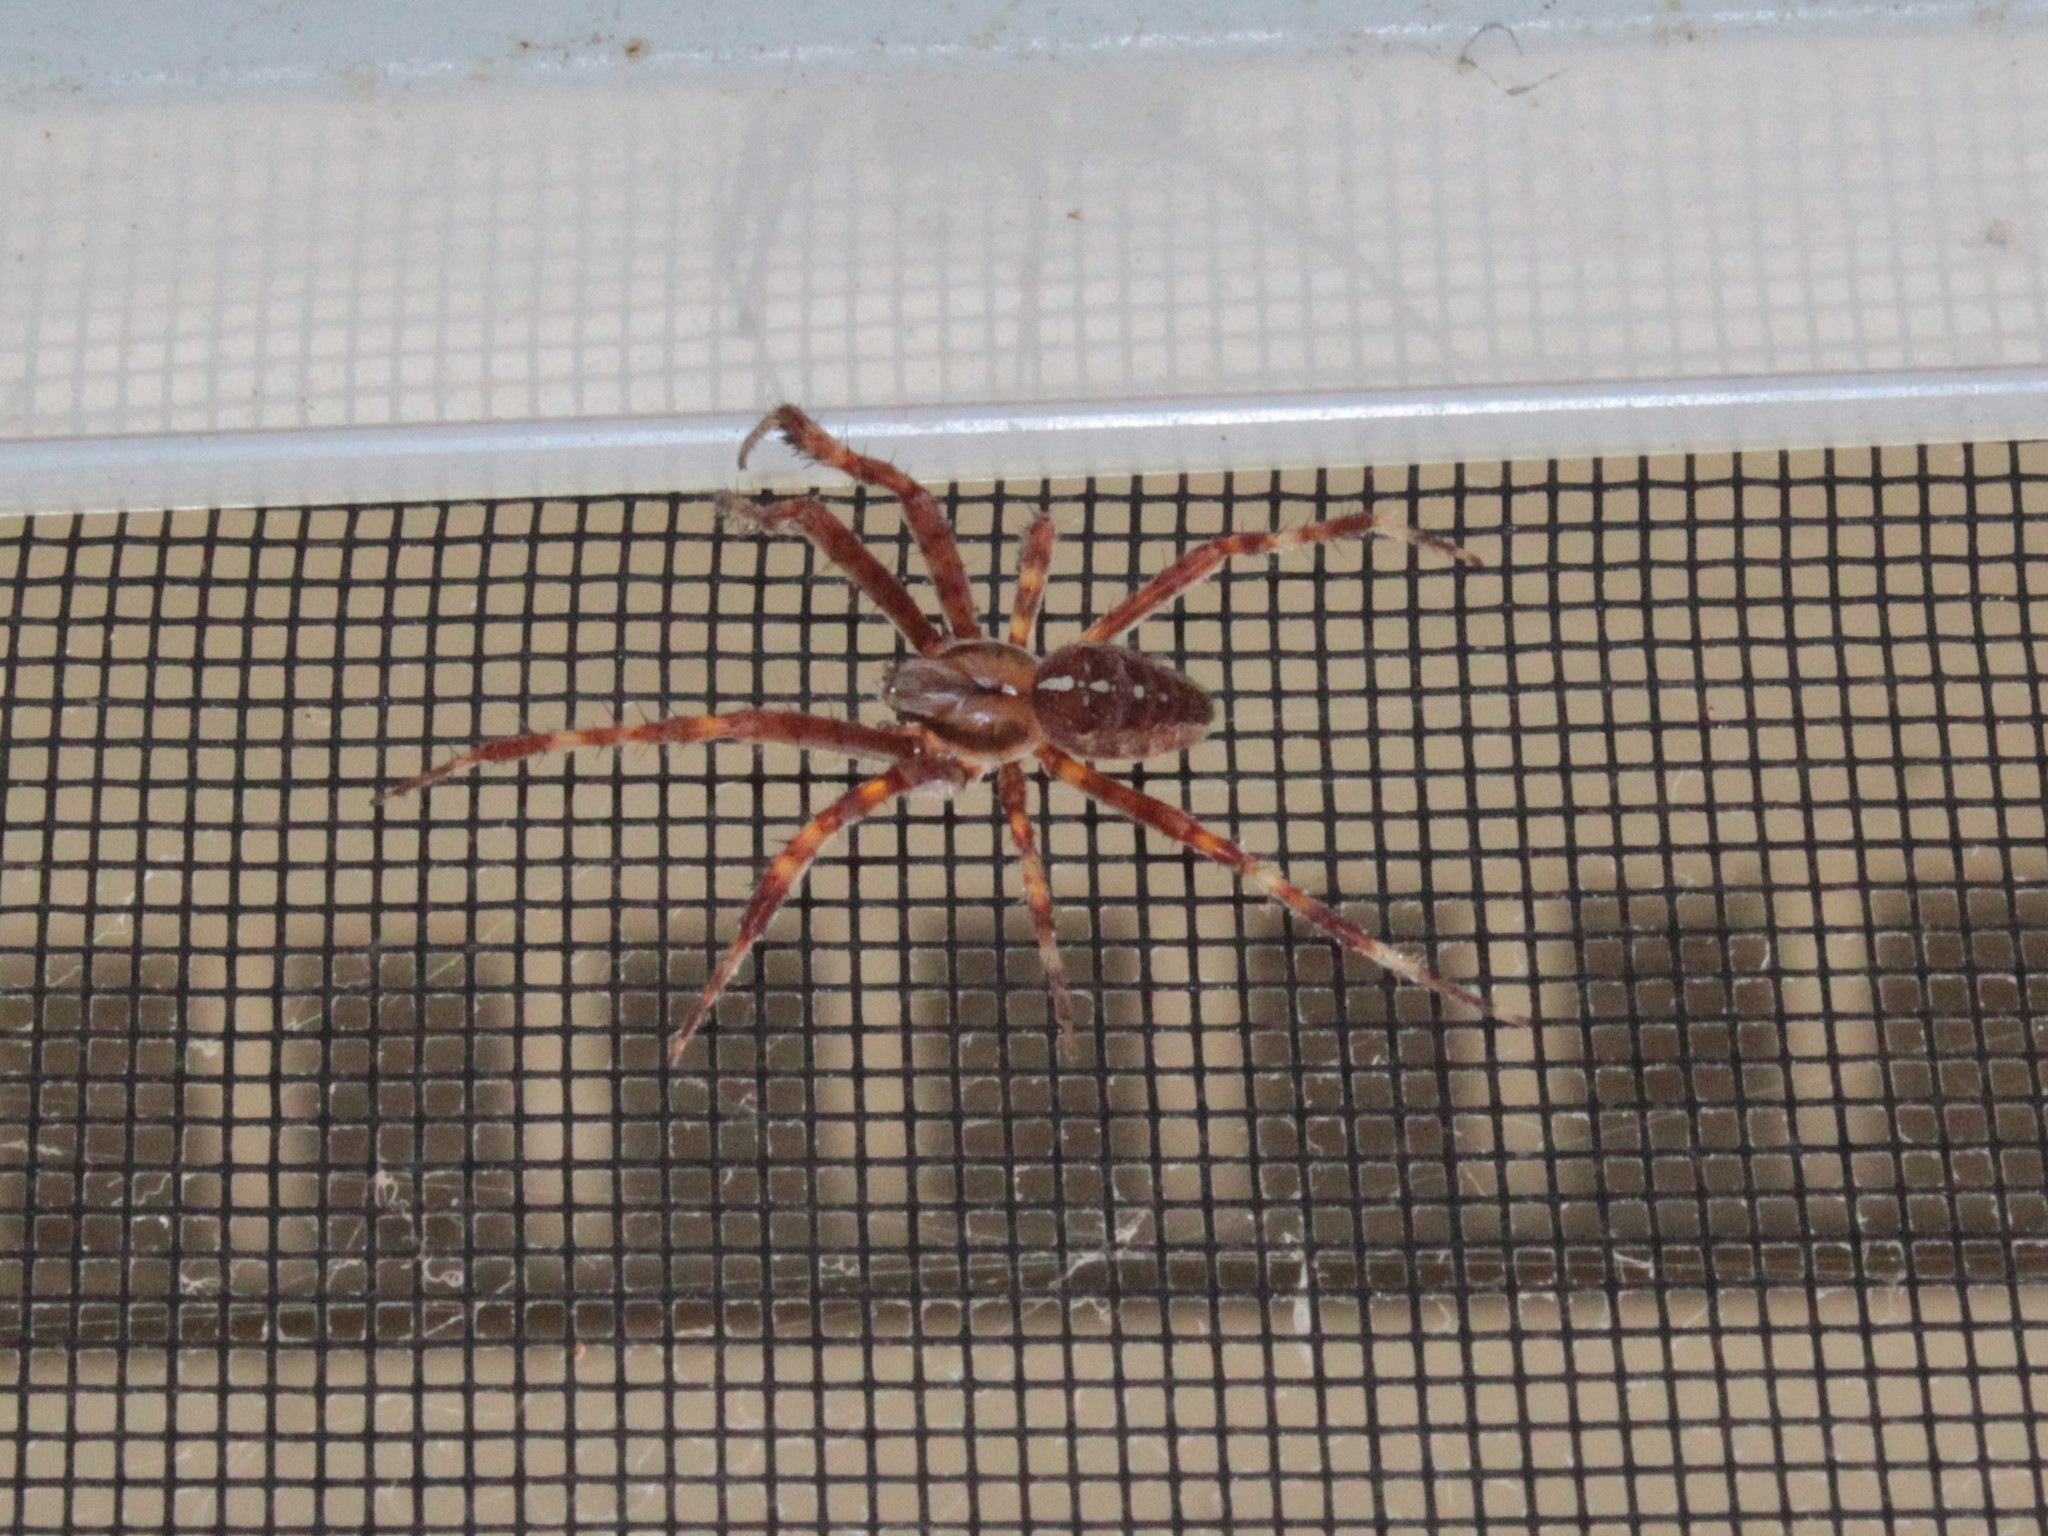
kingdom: Animalia
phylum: Arthropoda
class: Arachnida
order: Araneae
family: Araneidae
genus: Araneus
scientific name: Araneus diadematus
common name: Cross orbweaver
